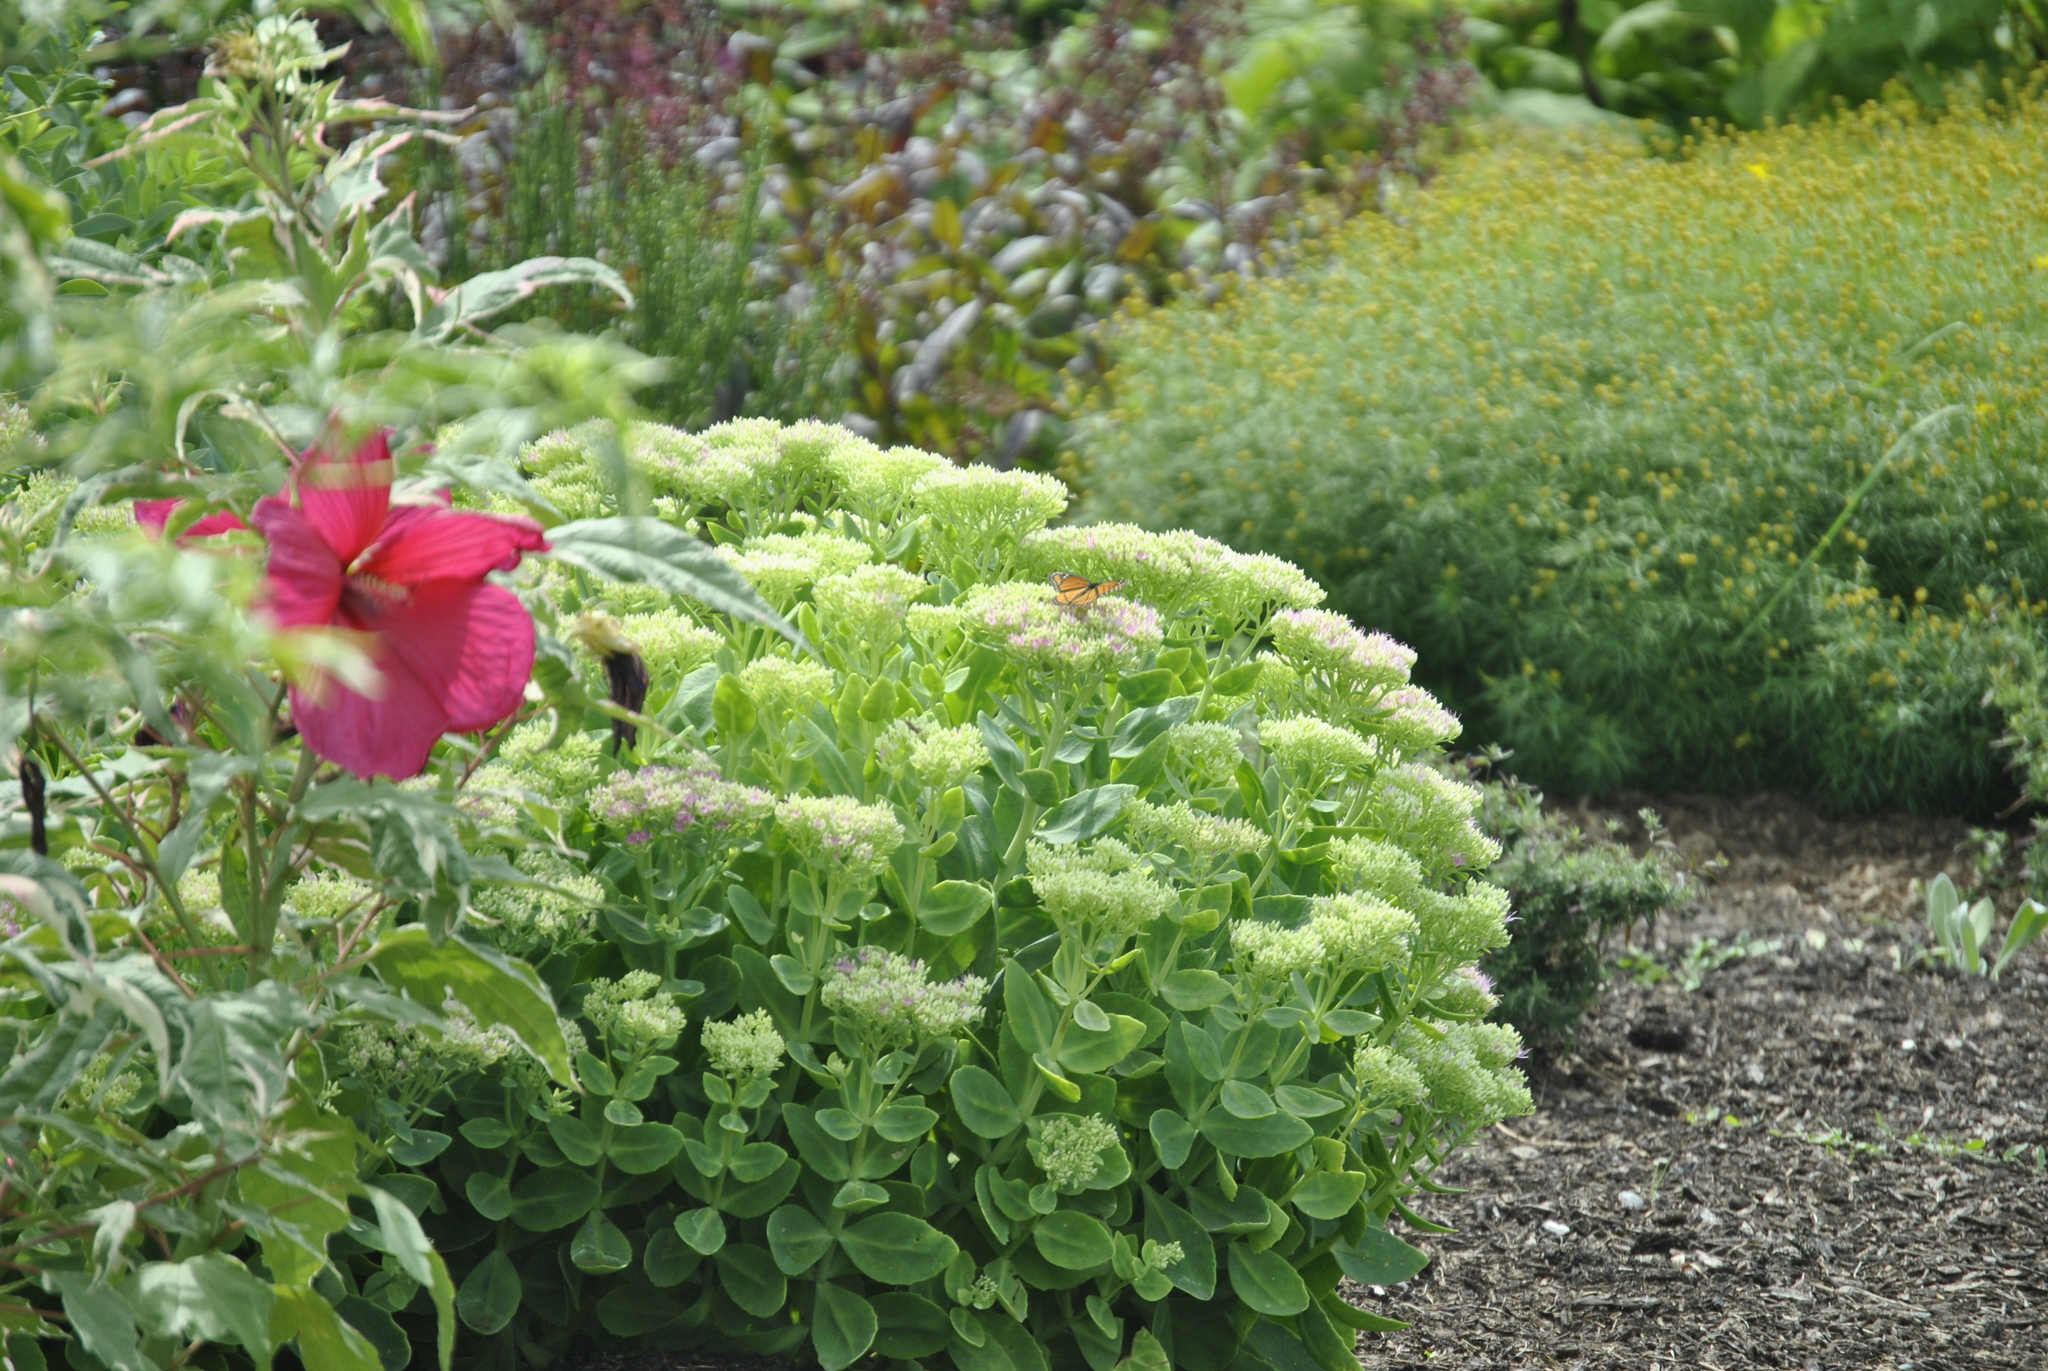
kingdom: Animalia
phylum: Arthropoda
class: Insecta
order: Lepidoptera
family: Nymphalidae
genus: Limenitis
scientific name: Limenitis archippus
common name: Viceroy
